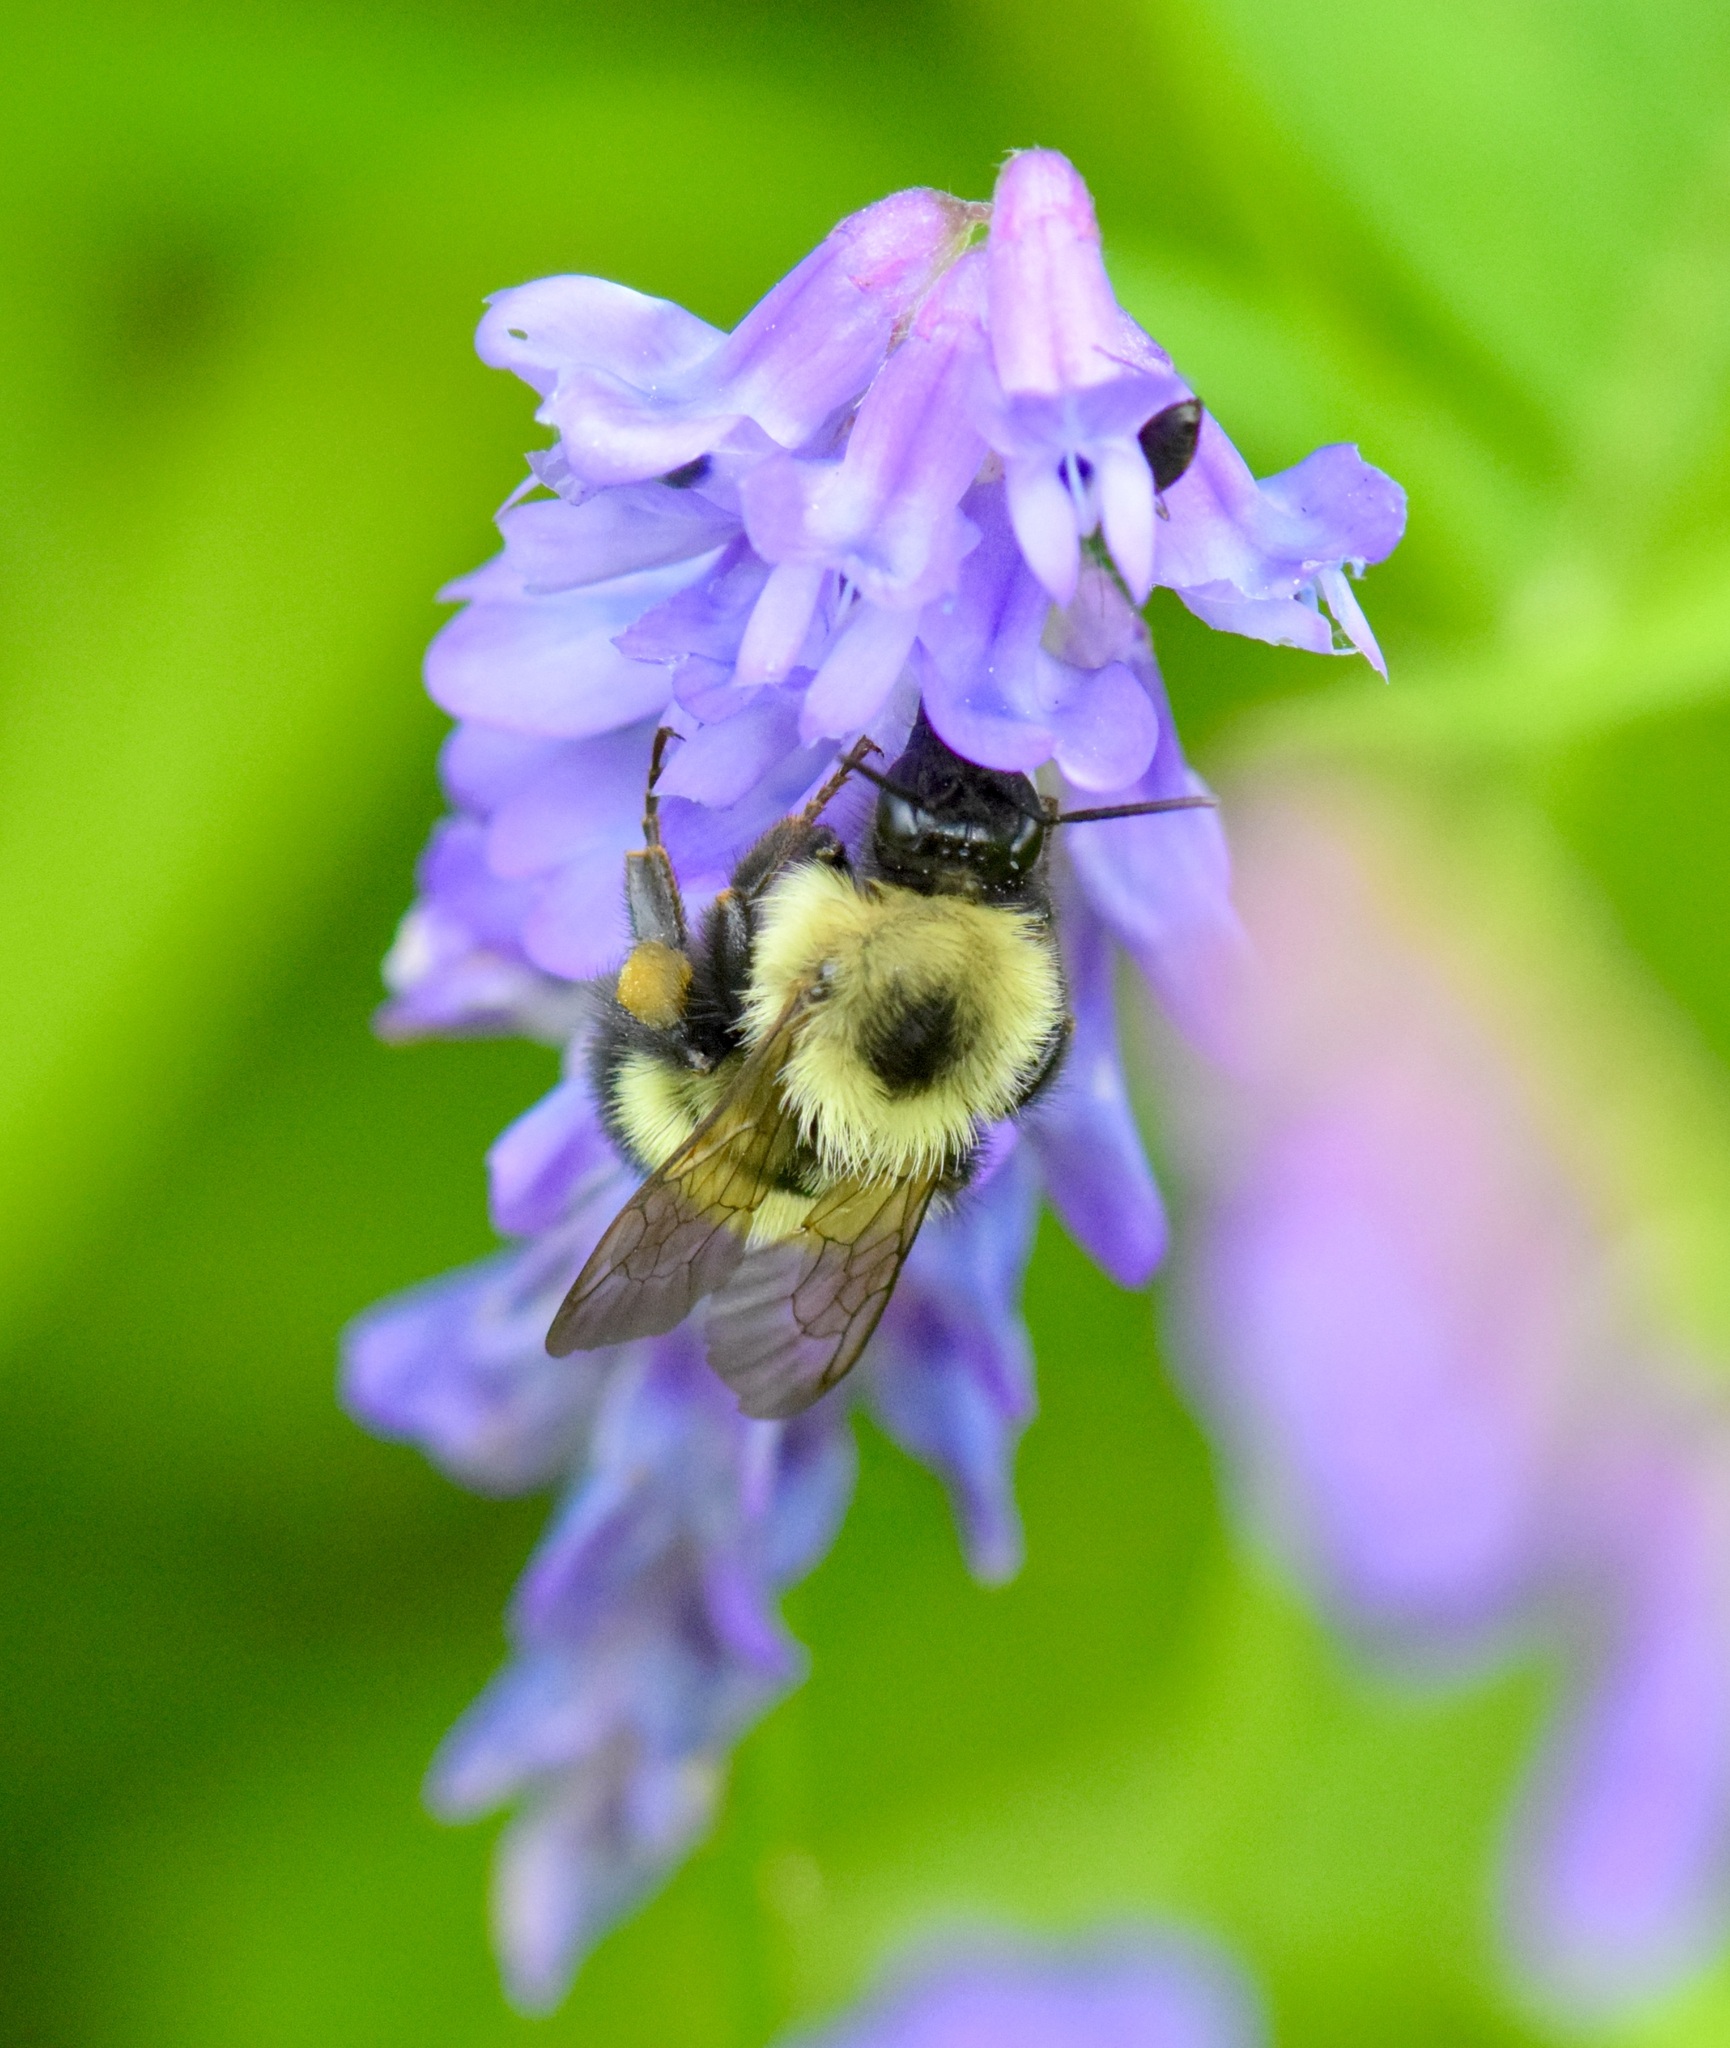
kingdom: Animalia
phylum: Arthropoda
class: Insecta
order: Hymenoptera
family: Apidae
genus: Bombus
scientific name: Bombus vagans
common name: Half-black bumble bee
